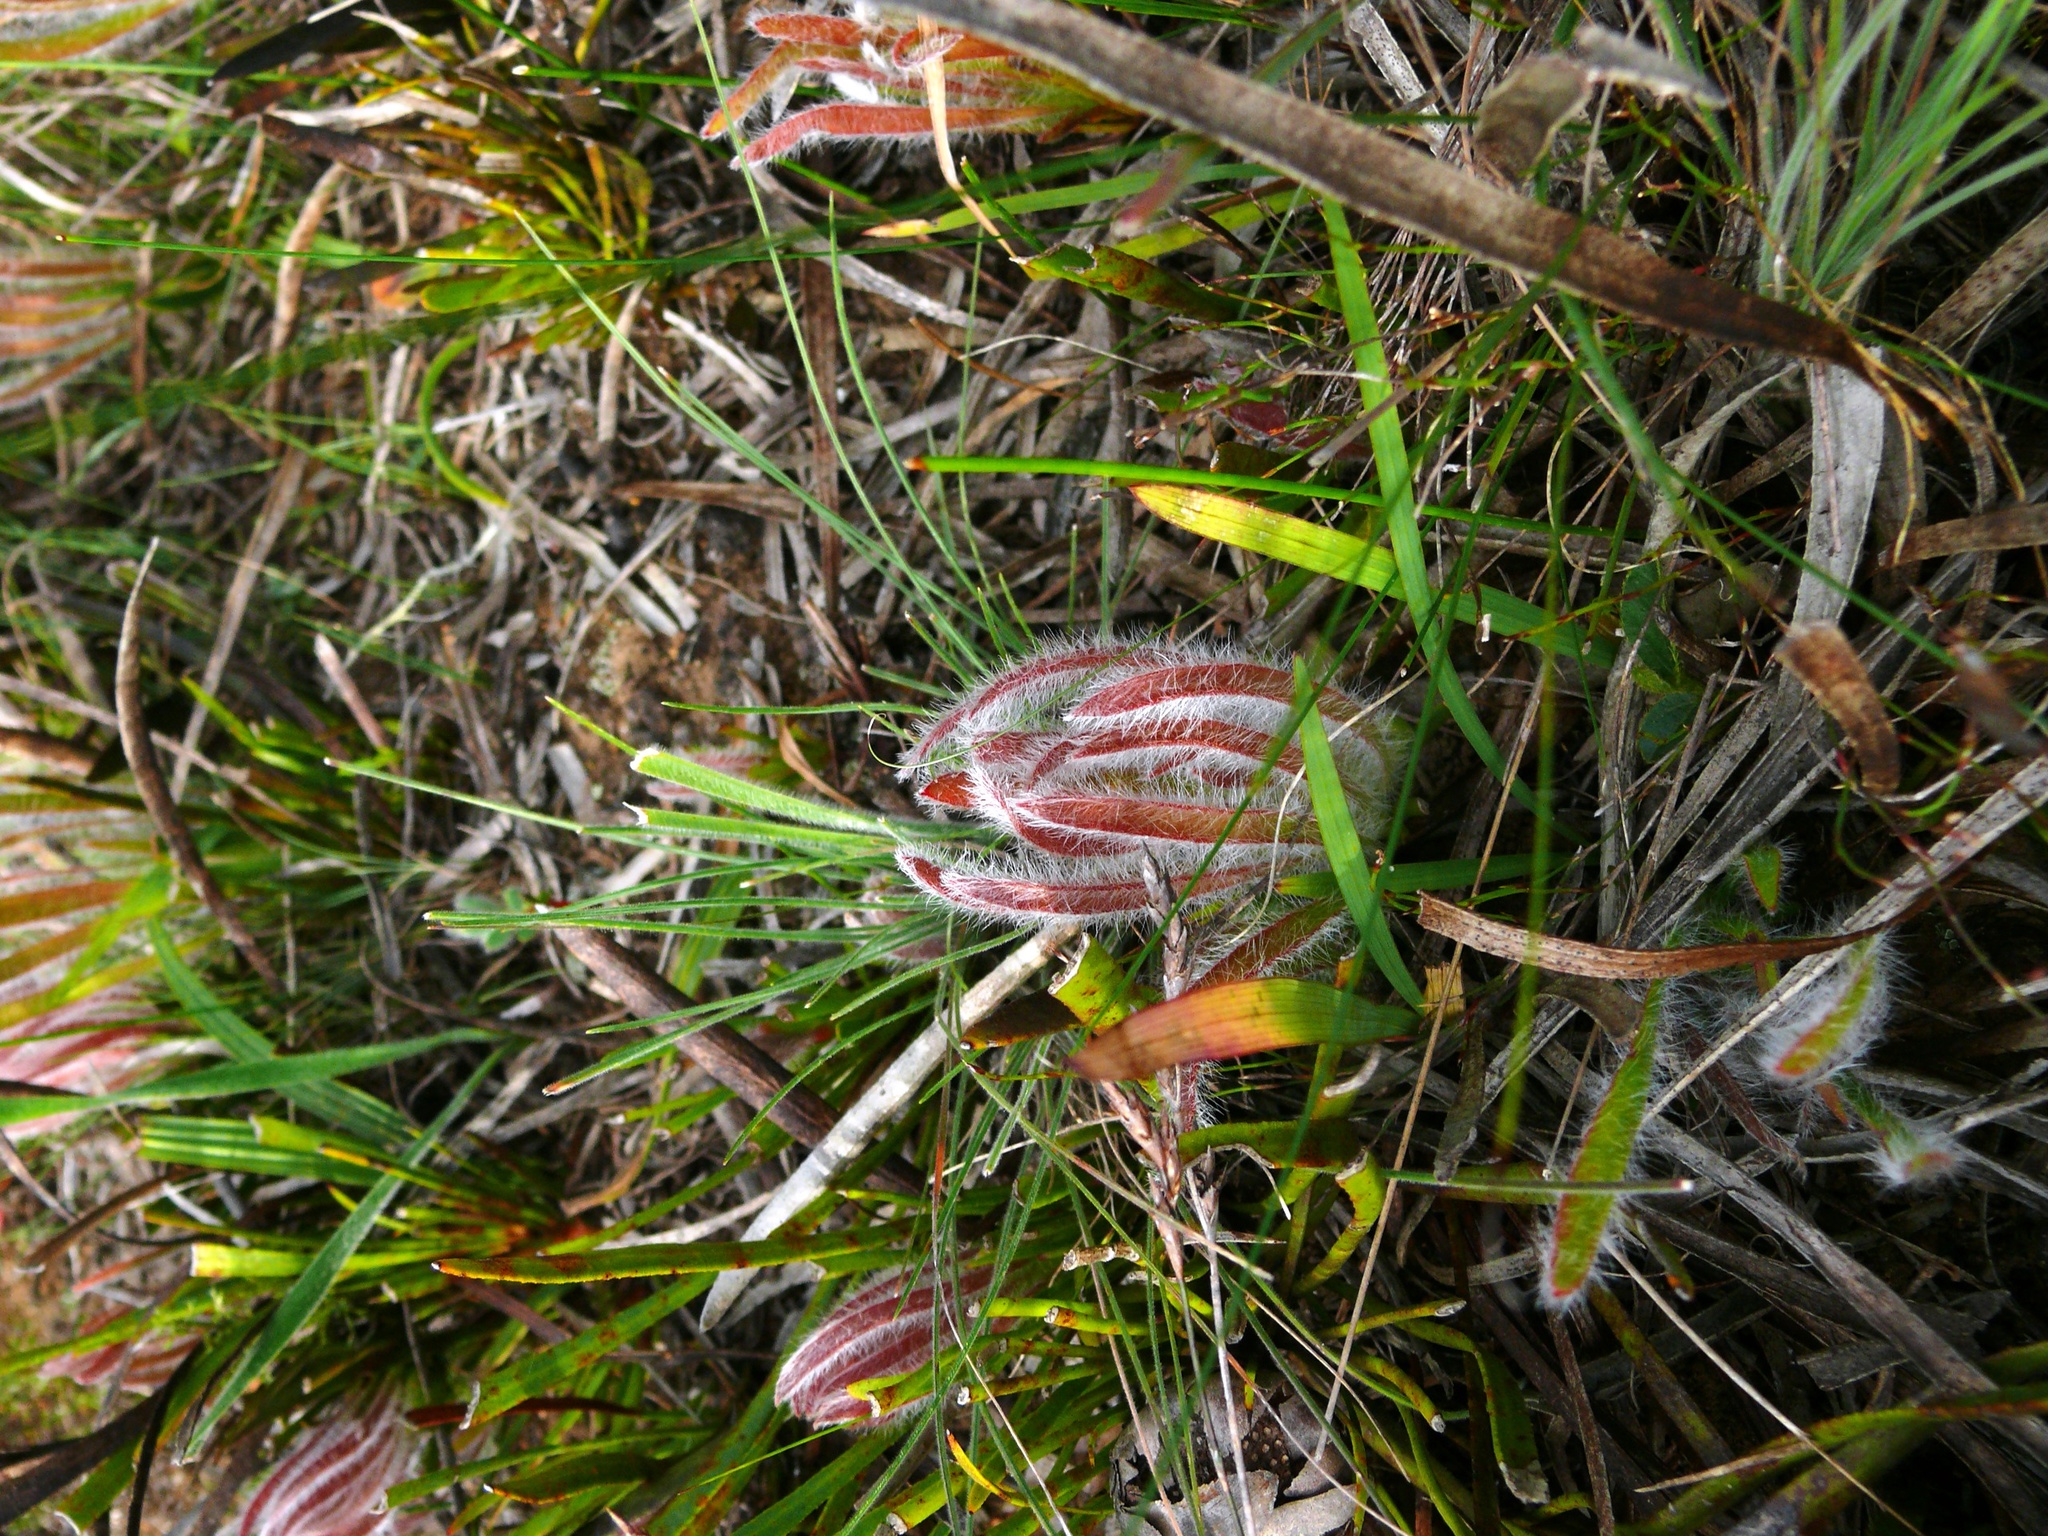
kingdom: Plantae
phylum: Tracheophyta
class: Magnoliopsida
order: Proteales
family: Proteaceae
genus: Protea
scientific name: Protea aspera
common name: Rough-leaf sugarbush
